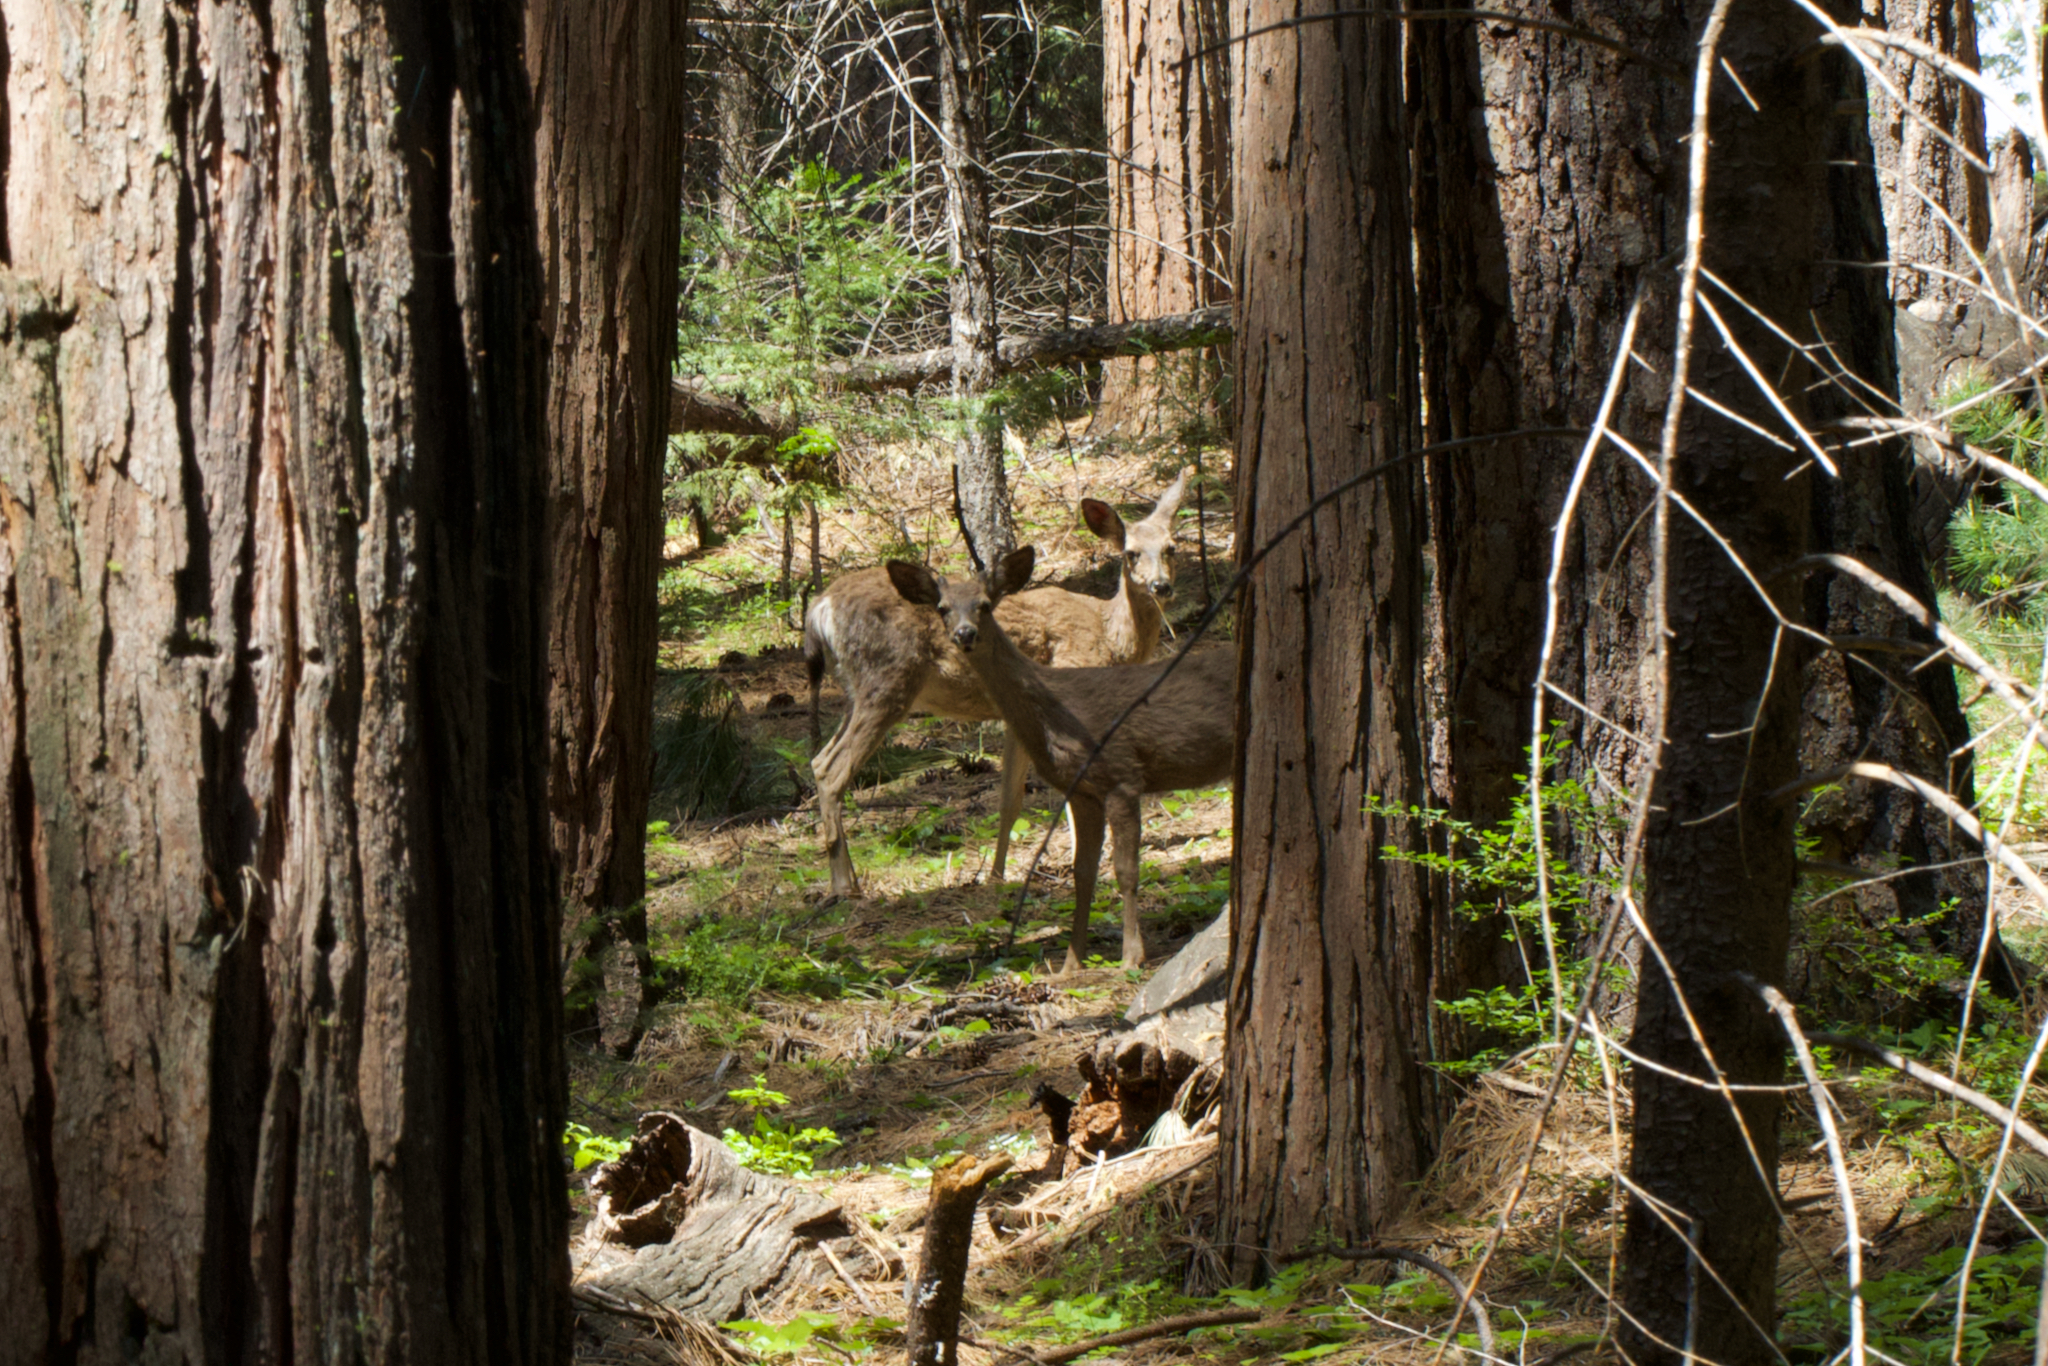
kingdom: Animalia
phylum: Chordata
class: Mammalia
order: Artiodactyla
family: Cervidae
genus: Odocoileus
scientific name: Odocoileus hemionus
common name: Mule deer
